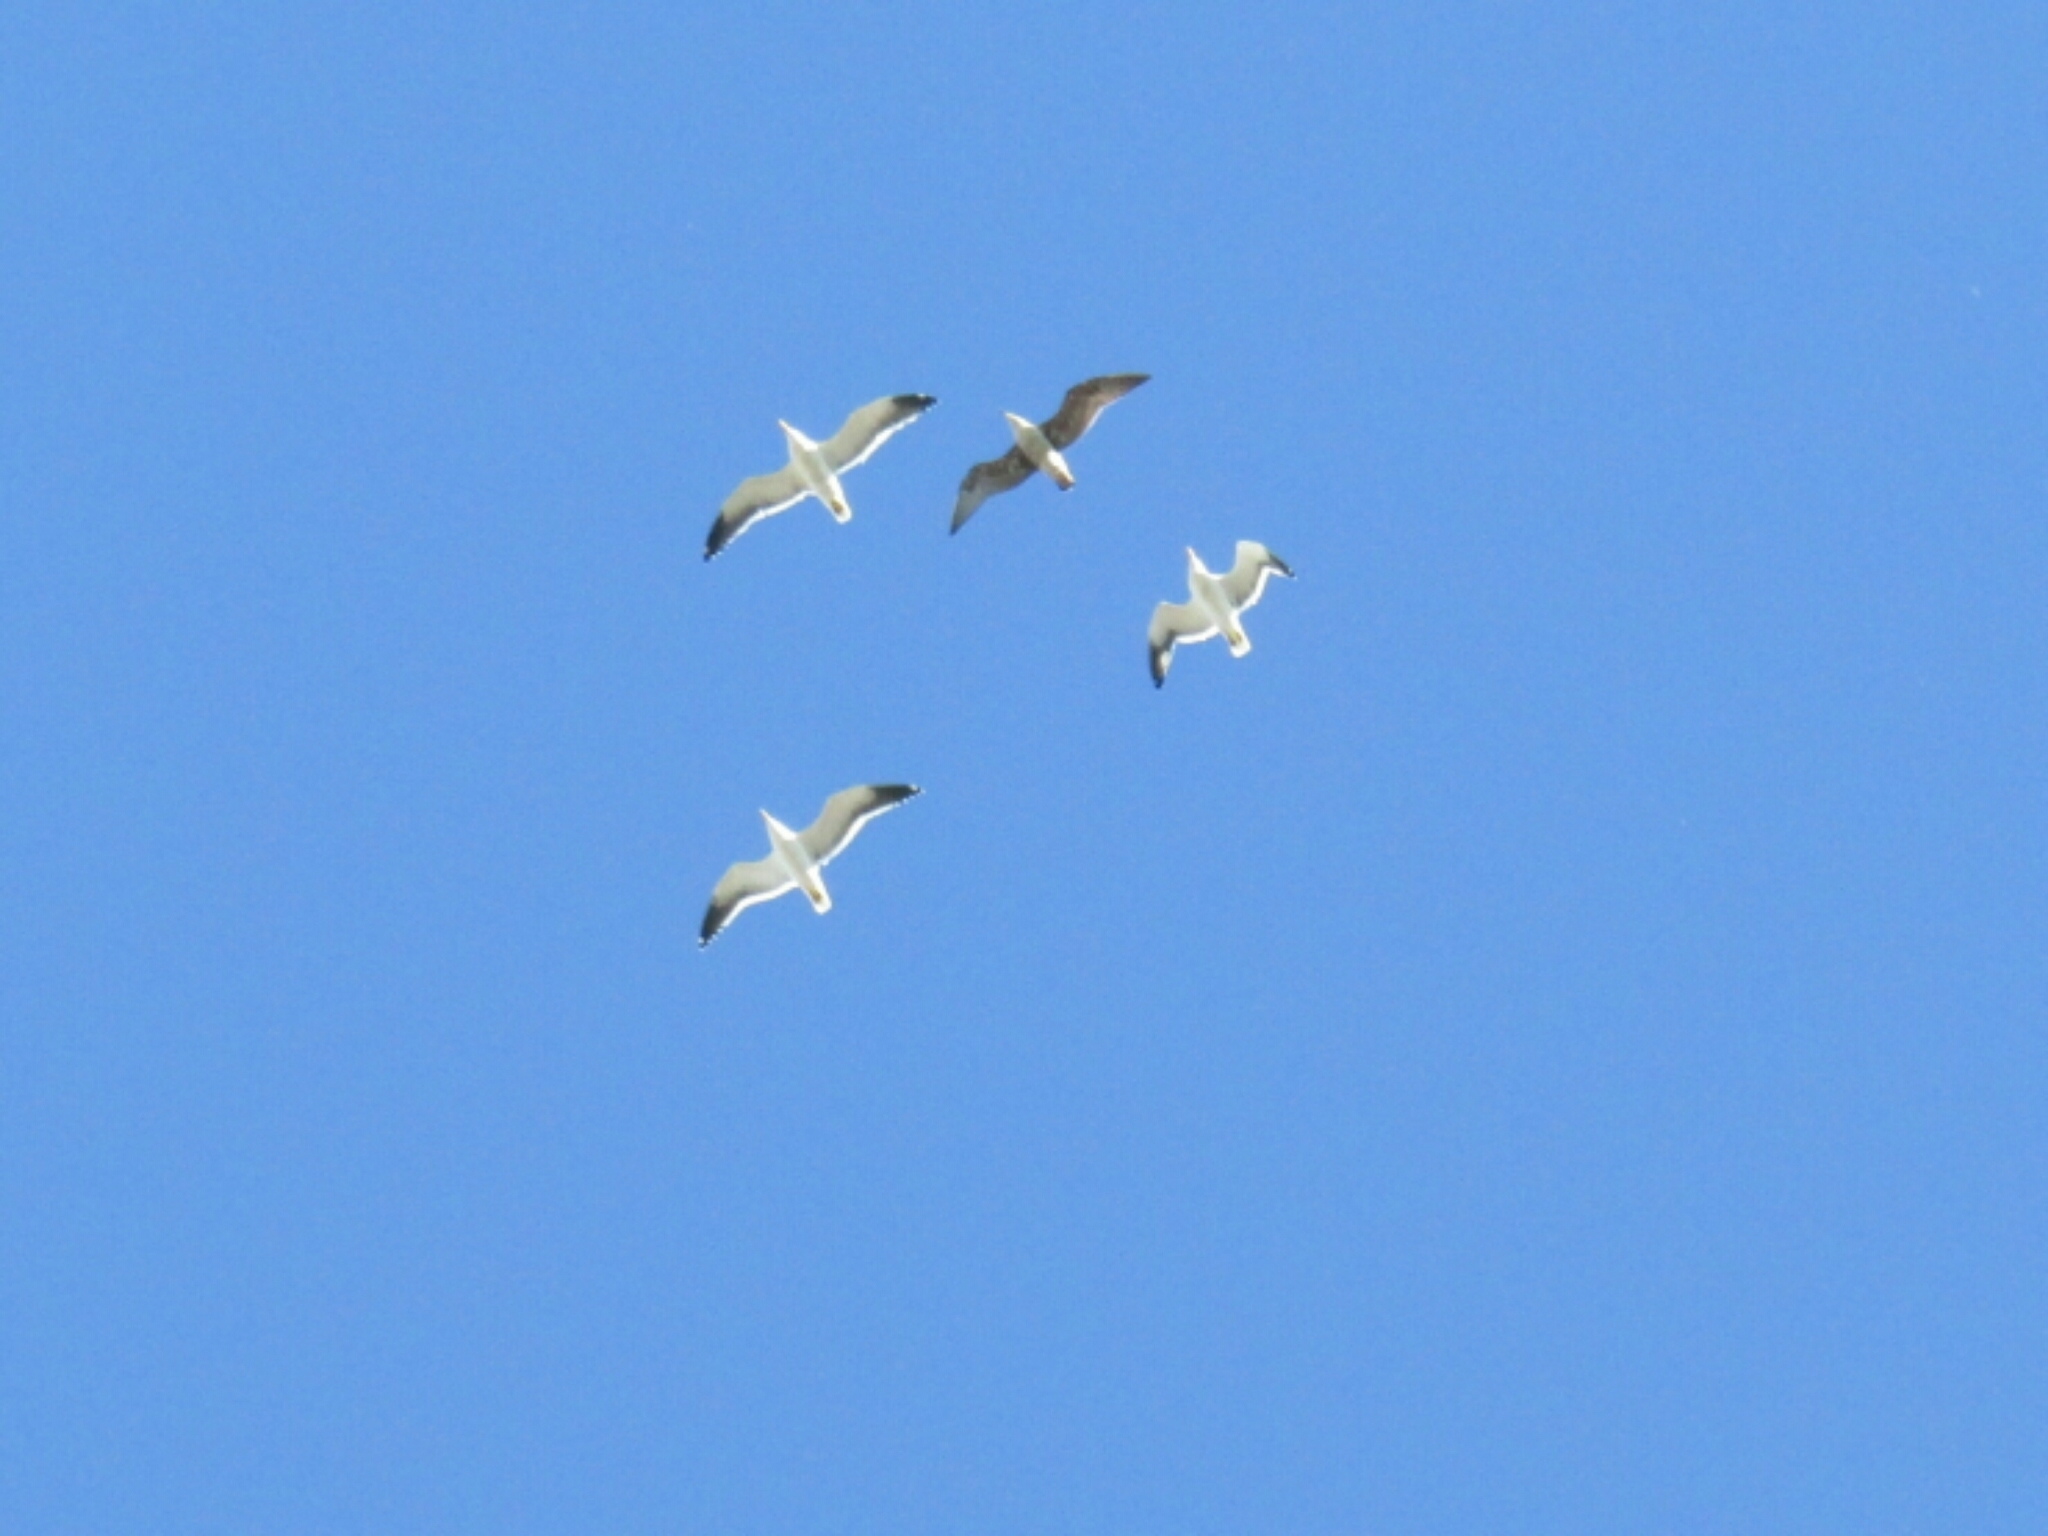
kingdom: Animalia
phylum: Chordata
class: Aves
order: Charadriiformes
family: Laridae
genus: Larus
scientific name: Larus dominicanus
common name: Kelp gull
